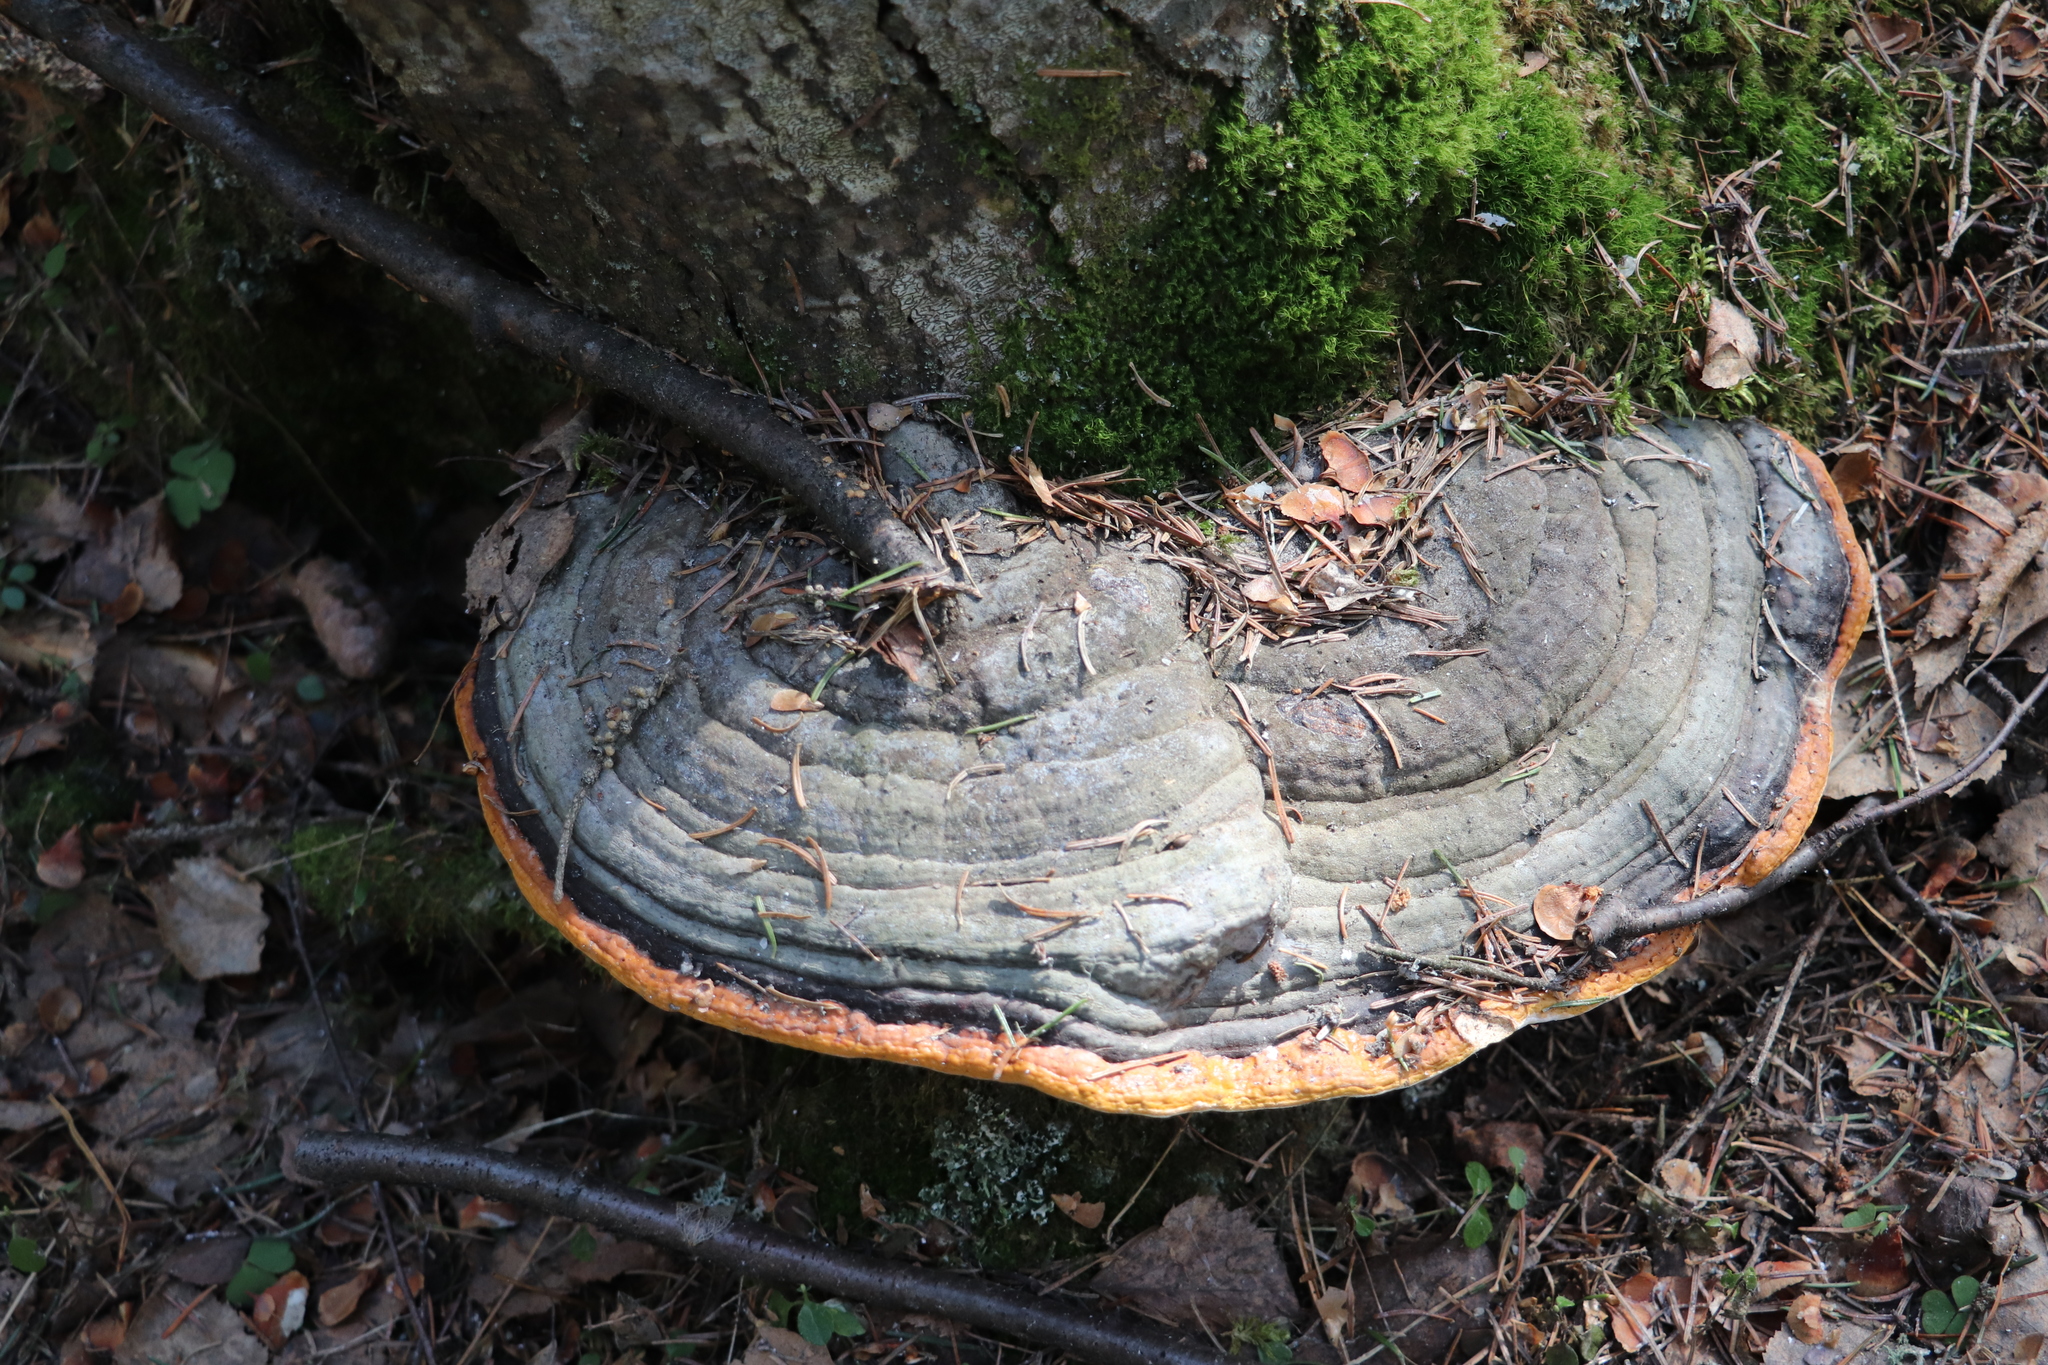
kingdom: Fungi
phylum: Basidiomycota
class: Agaricomycetes
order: Polyporales
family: Fomitopsidaceae
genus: Fomitopsis
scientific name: Fomitopsis pinicola
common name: Red-belted bracket
